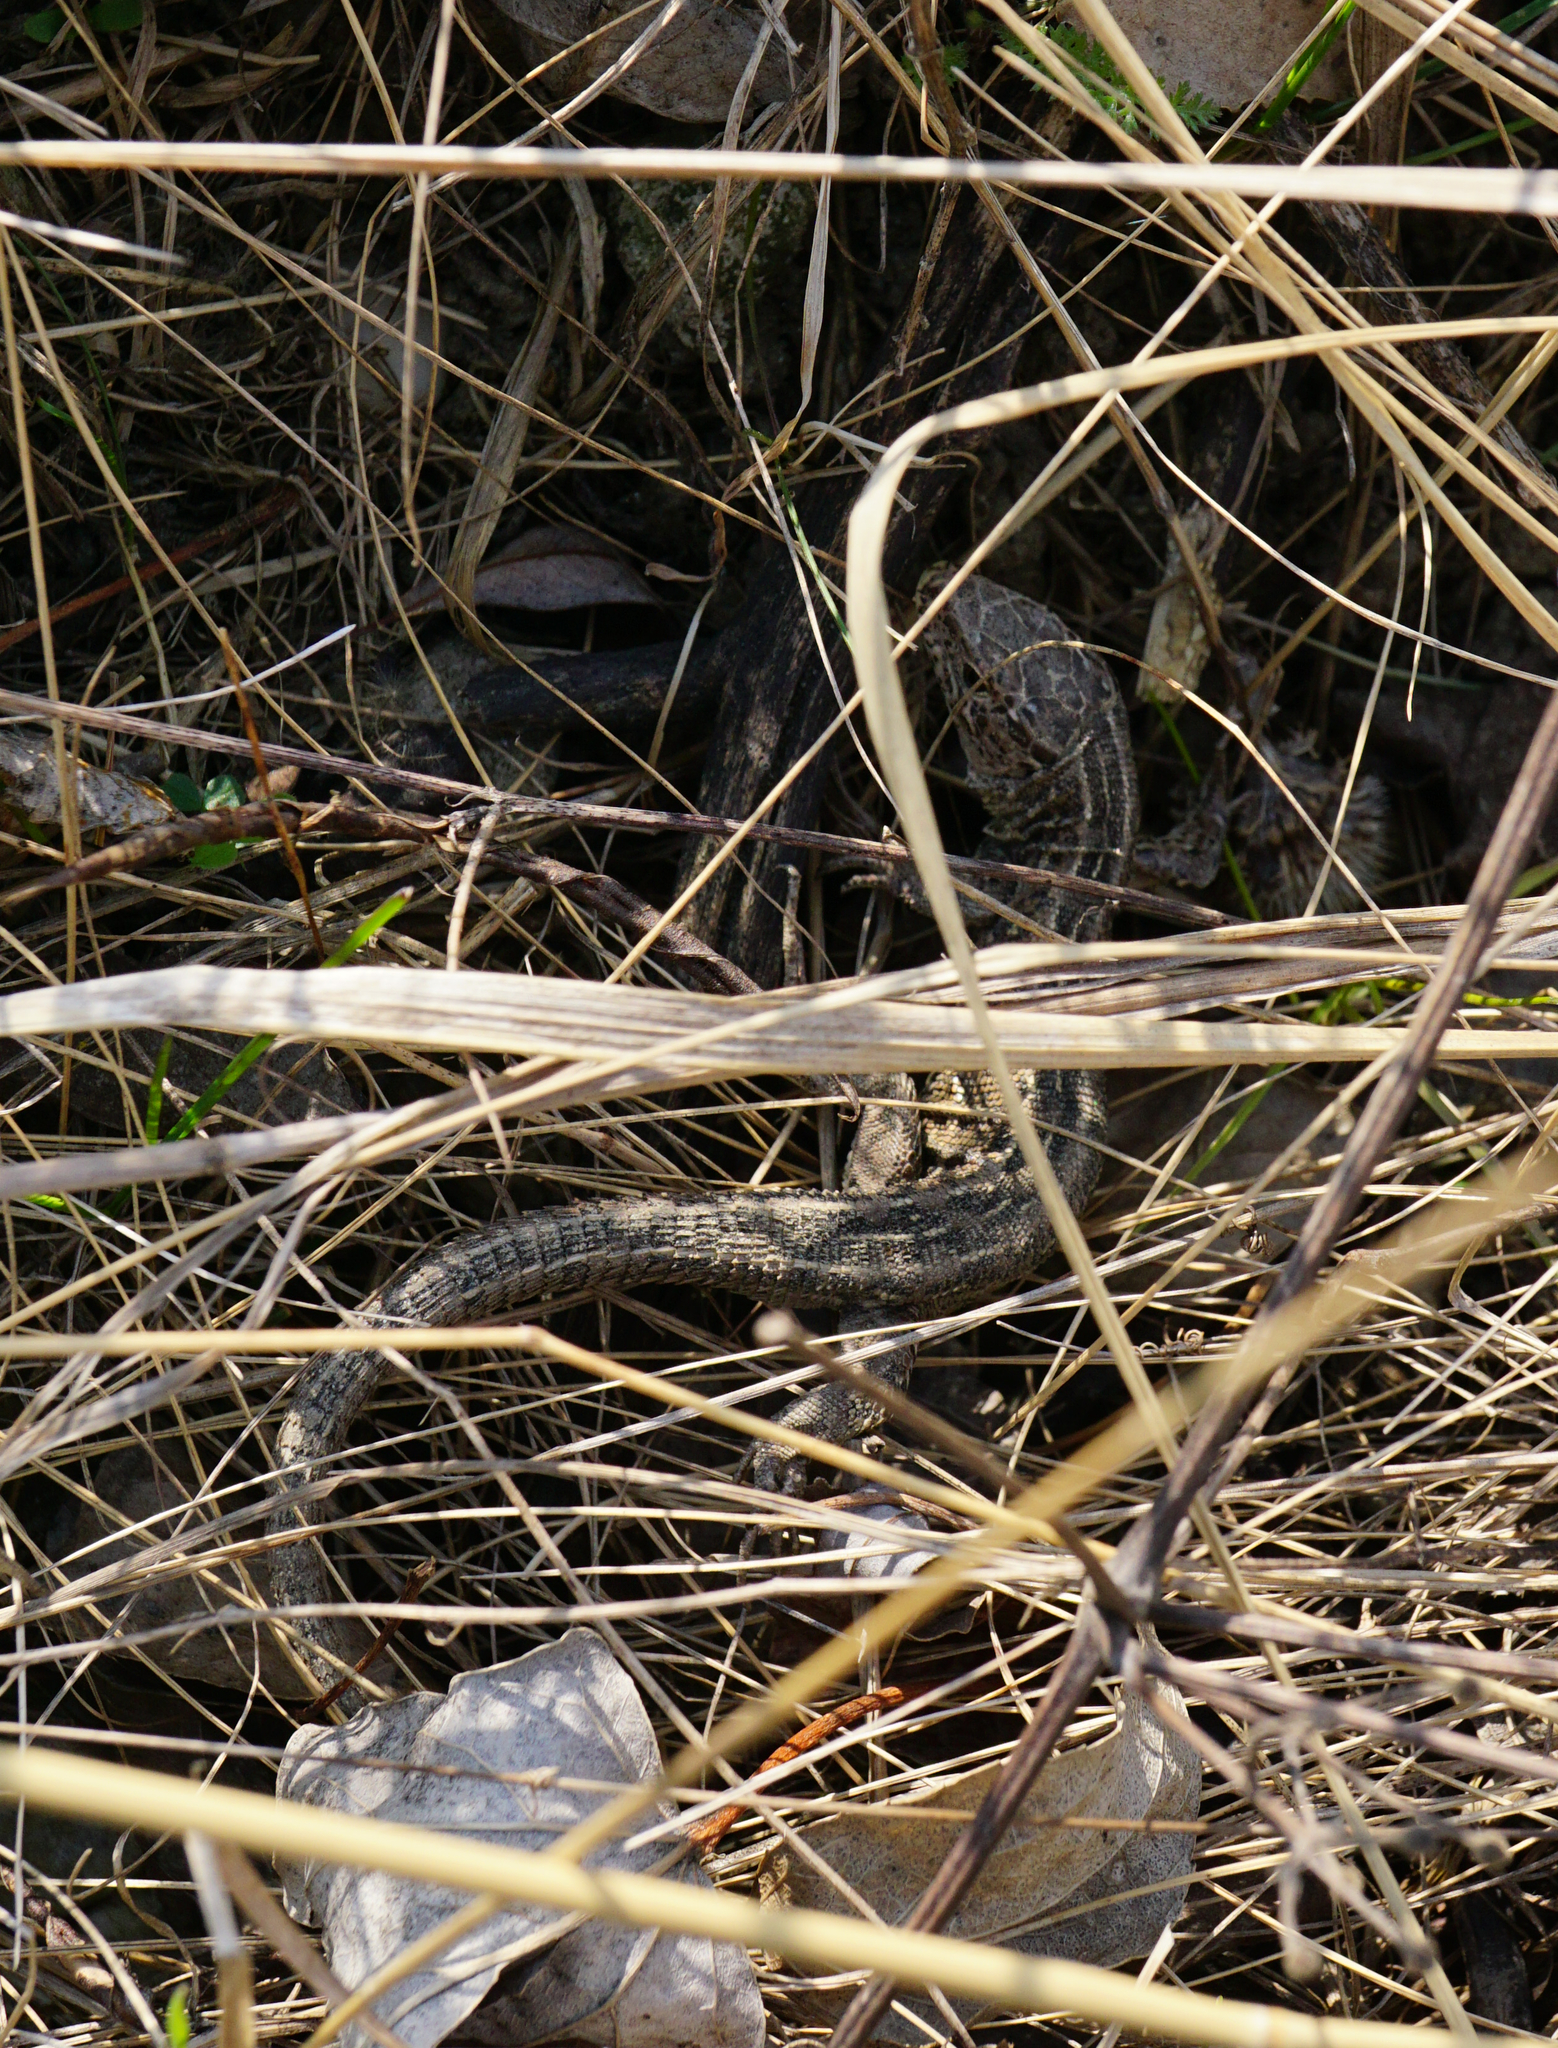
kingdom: Animalia
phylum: Chordata
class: Squamata
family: Lacertidae
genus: Lacerta
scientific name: Lacerta agilis
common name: Sand lizard
